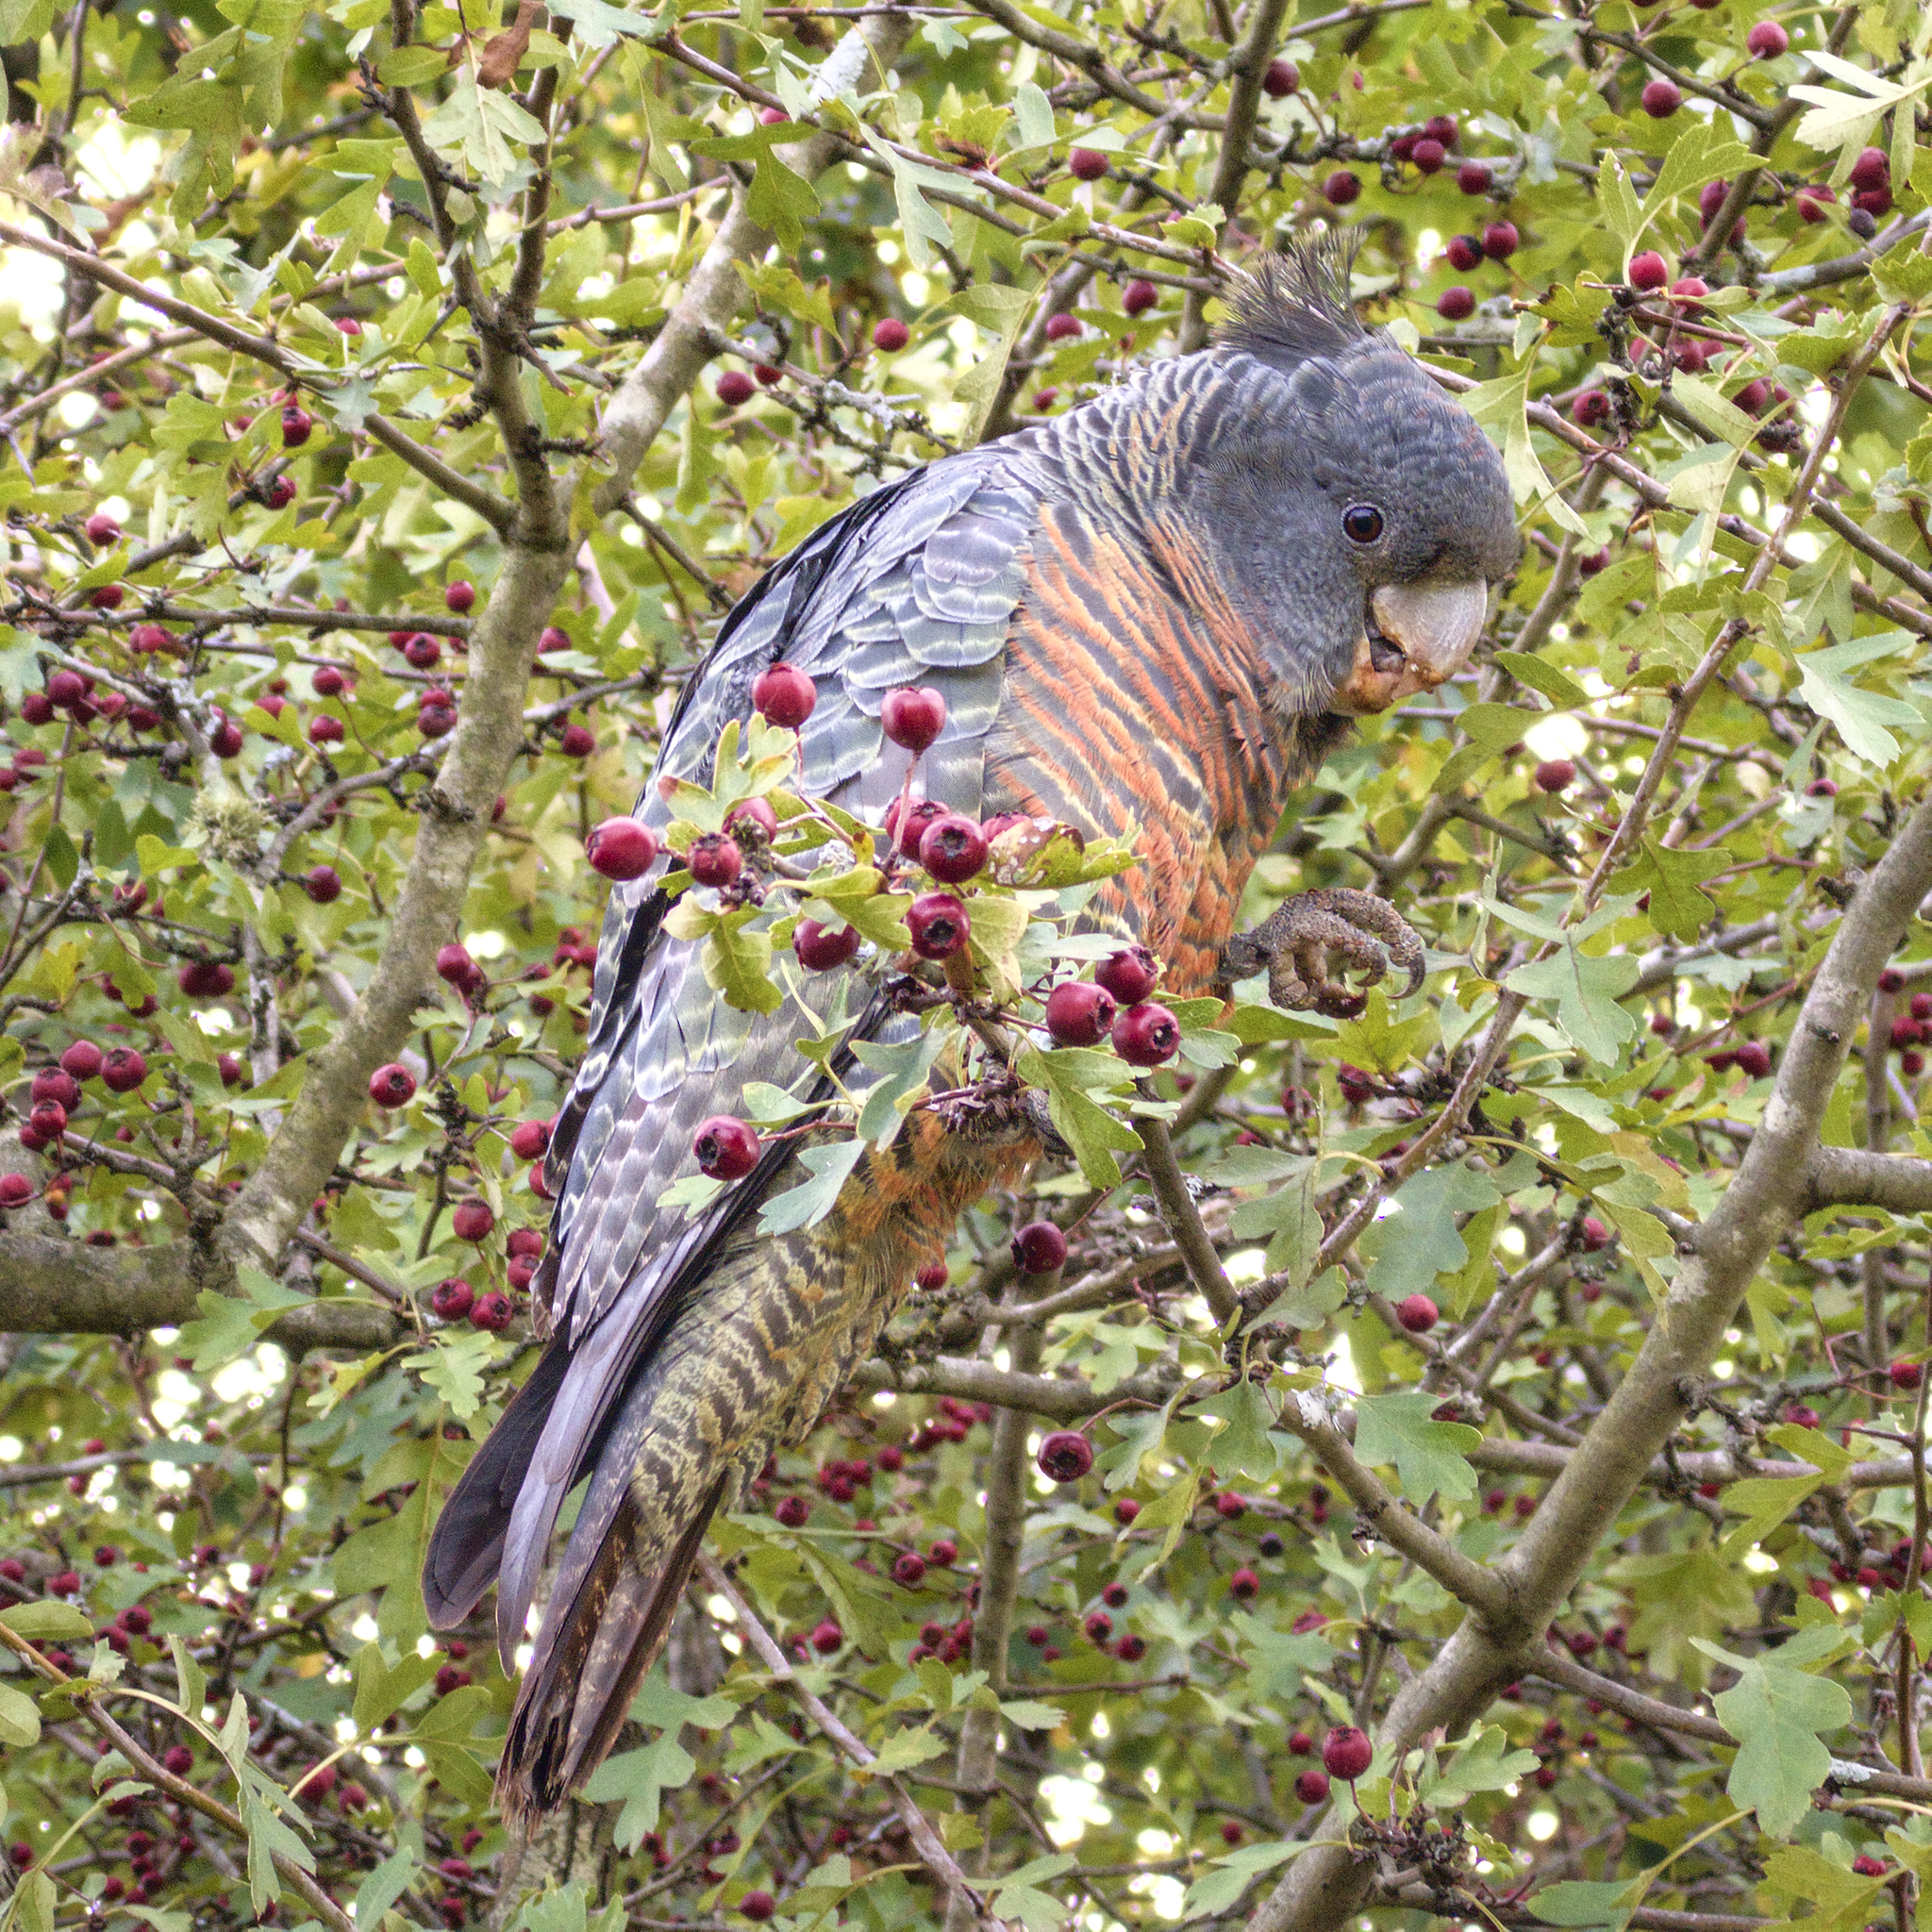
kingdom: Animalia
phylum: Chordata
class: Aves
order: Psittaciformes
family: Psittacidae
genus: Callocephalon
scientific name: Callocephalon fimbriatum
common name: Gang-gang cockatoo
